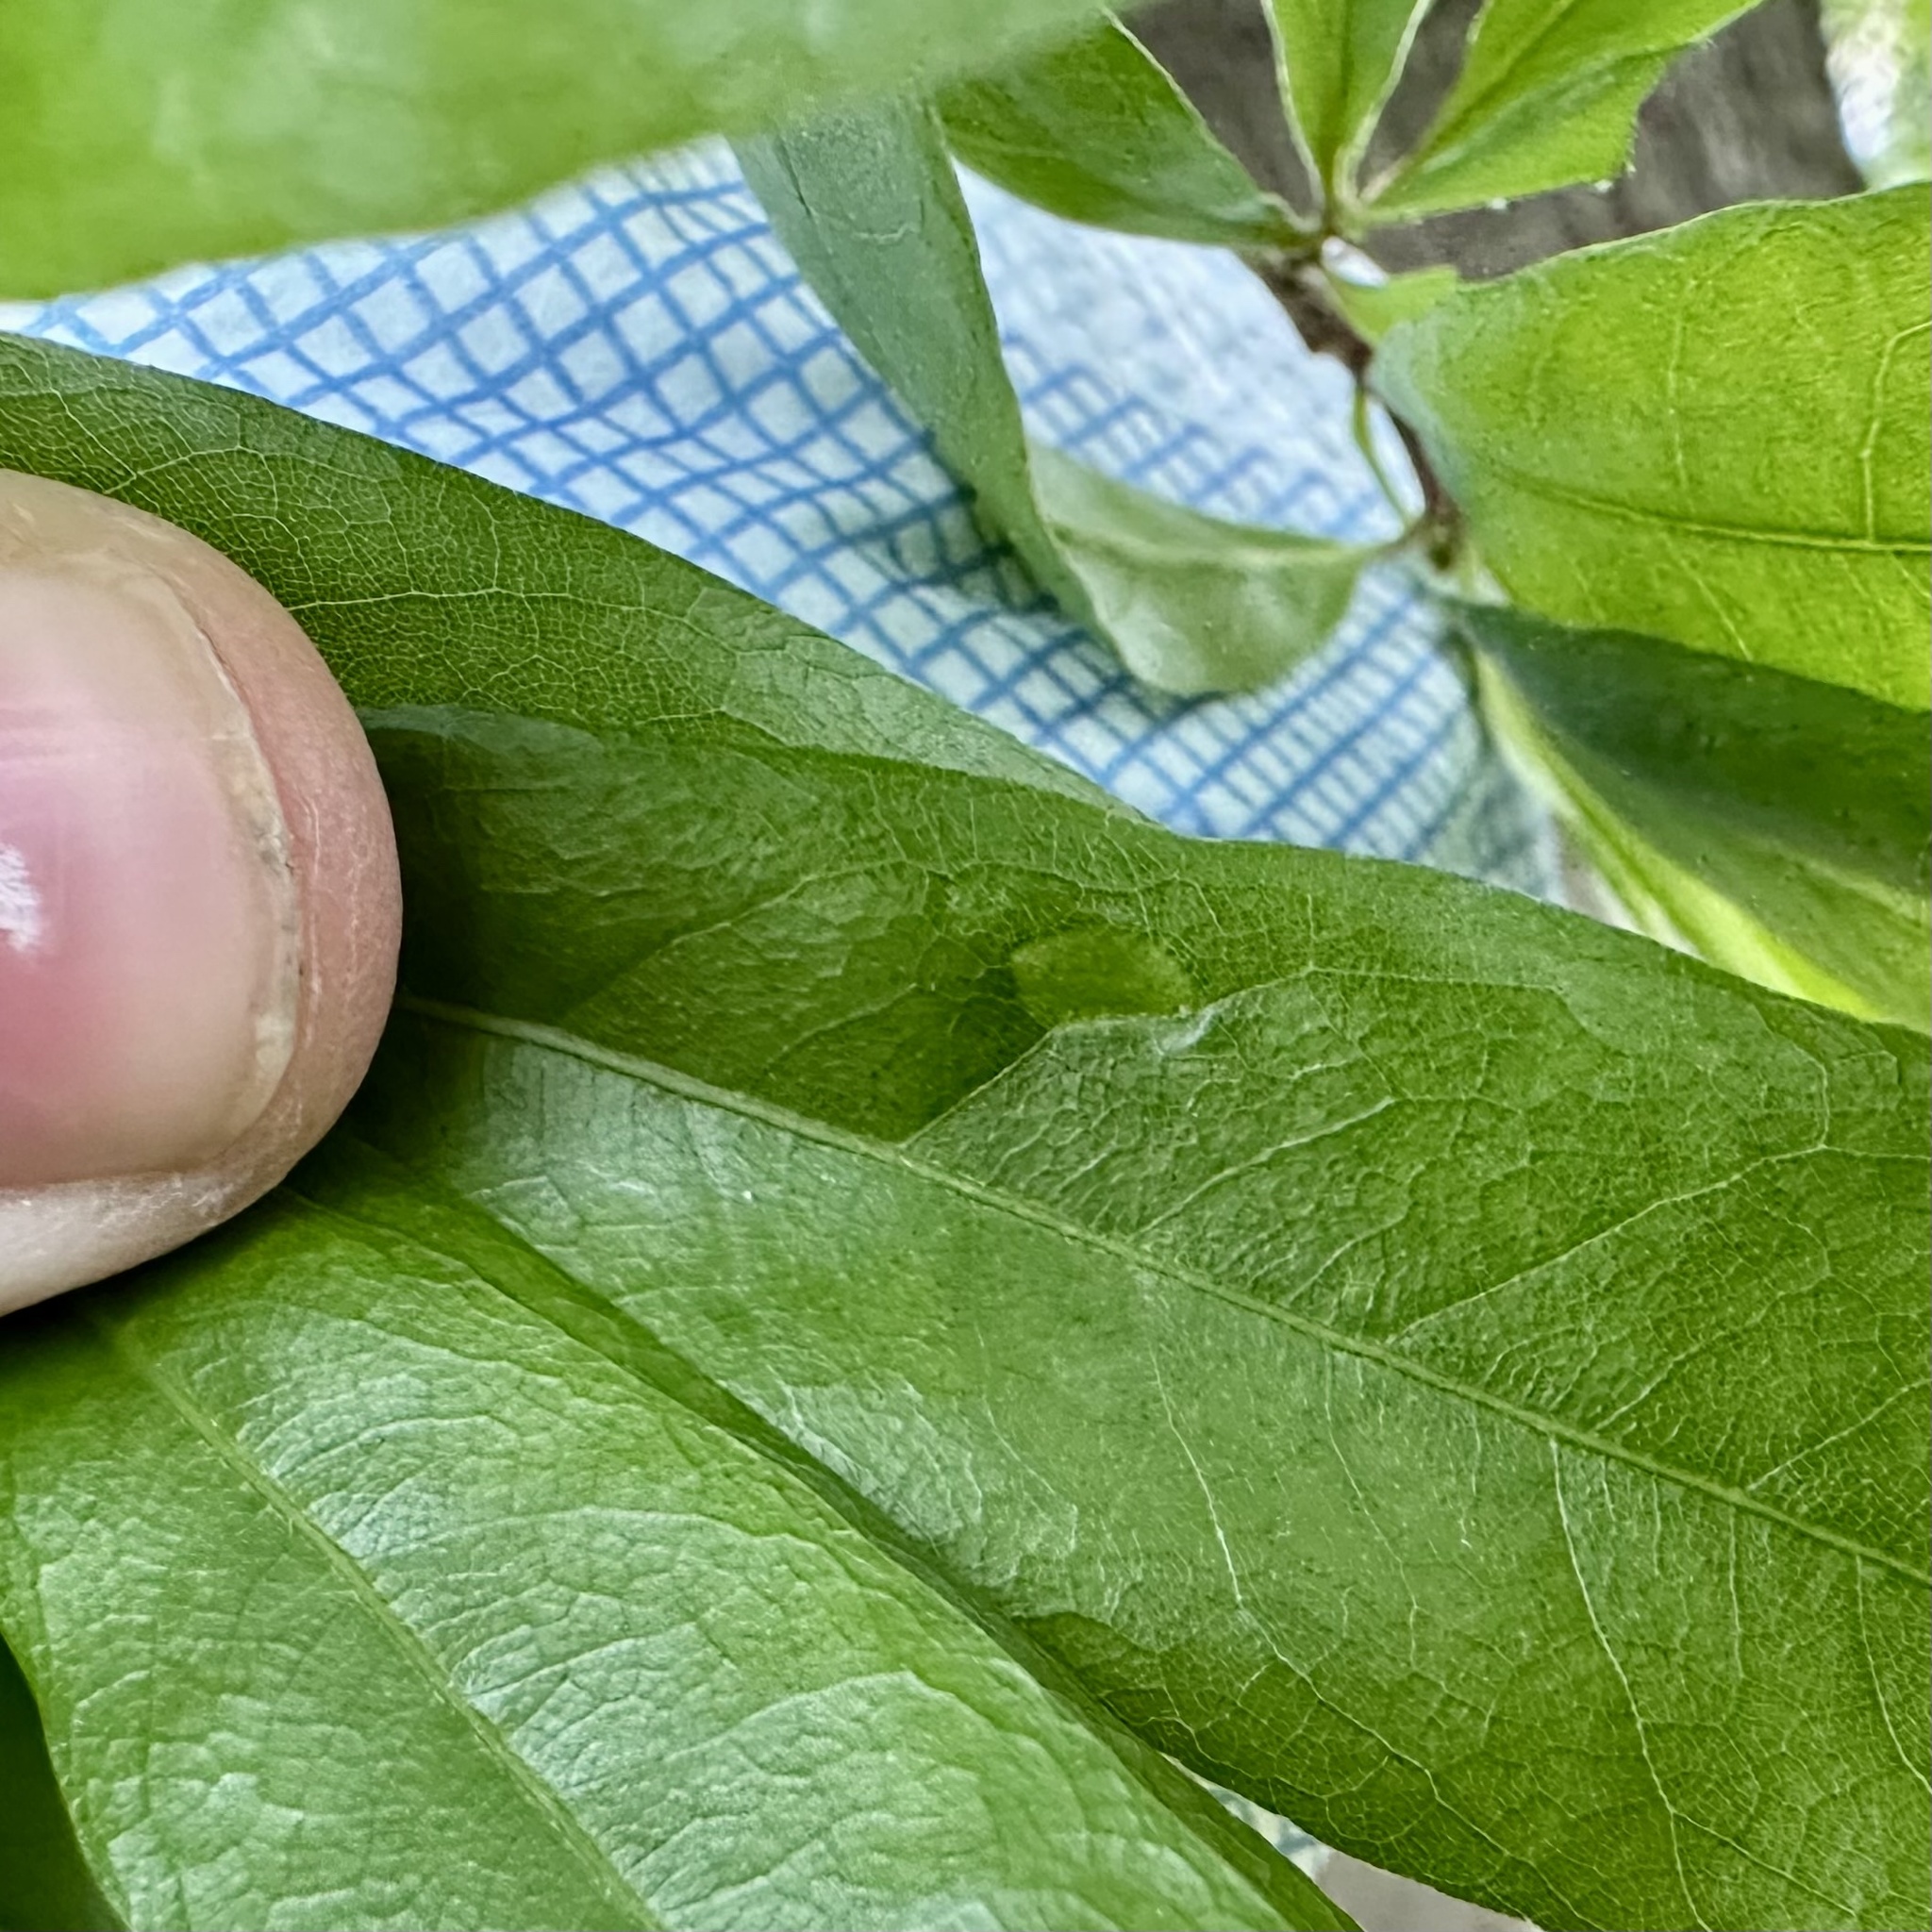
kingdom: Animalia
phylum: Arthropoda
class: Insecta
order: Hymenoptera
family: Cynipidae
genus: Dryocosmus
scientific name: Dryocosmus
